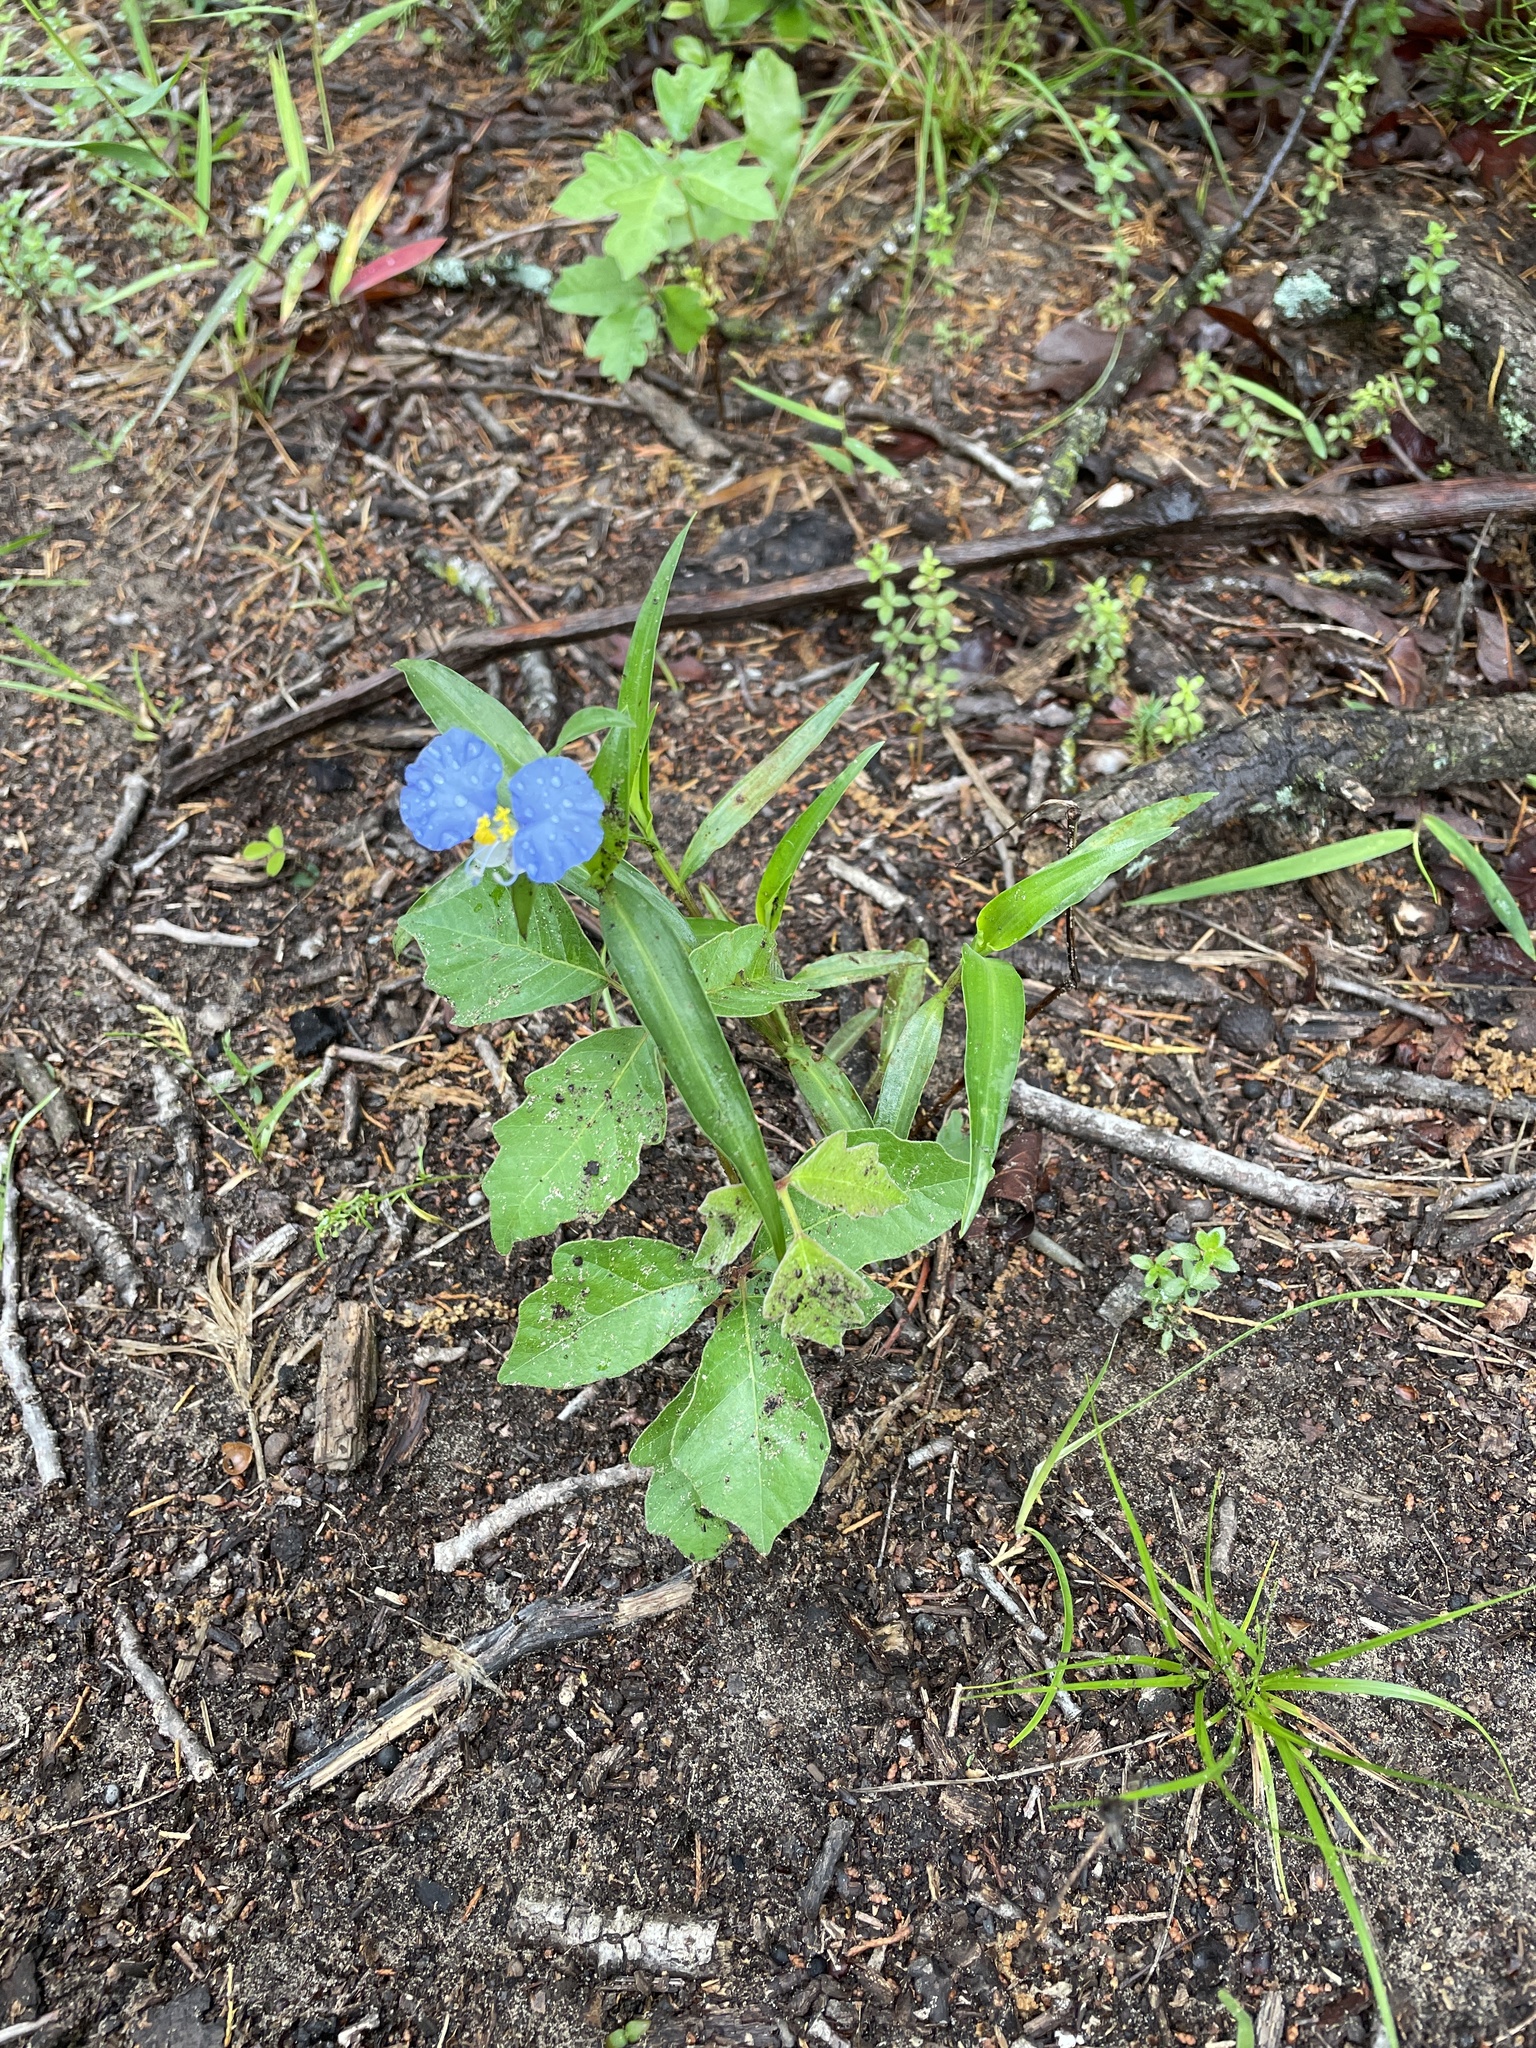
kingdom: Plantae
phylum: Tracheophyta
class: Liliopsida
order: Commelinales
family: Commelinaceae
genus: Commelina
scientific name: Commelina erecta
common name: Blousel blommetjie
